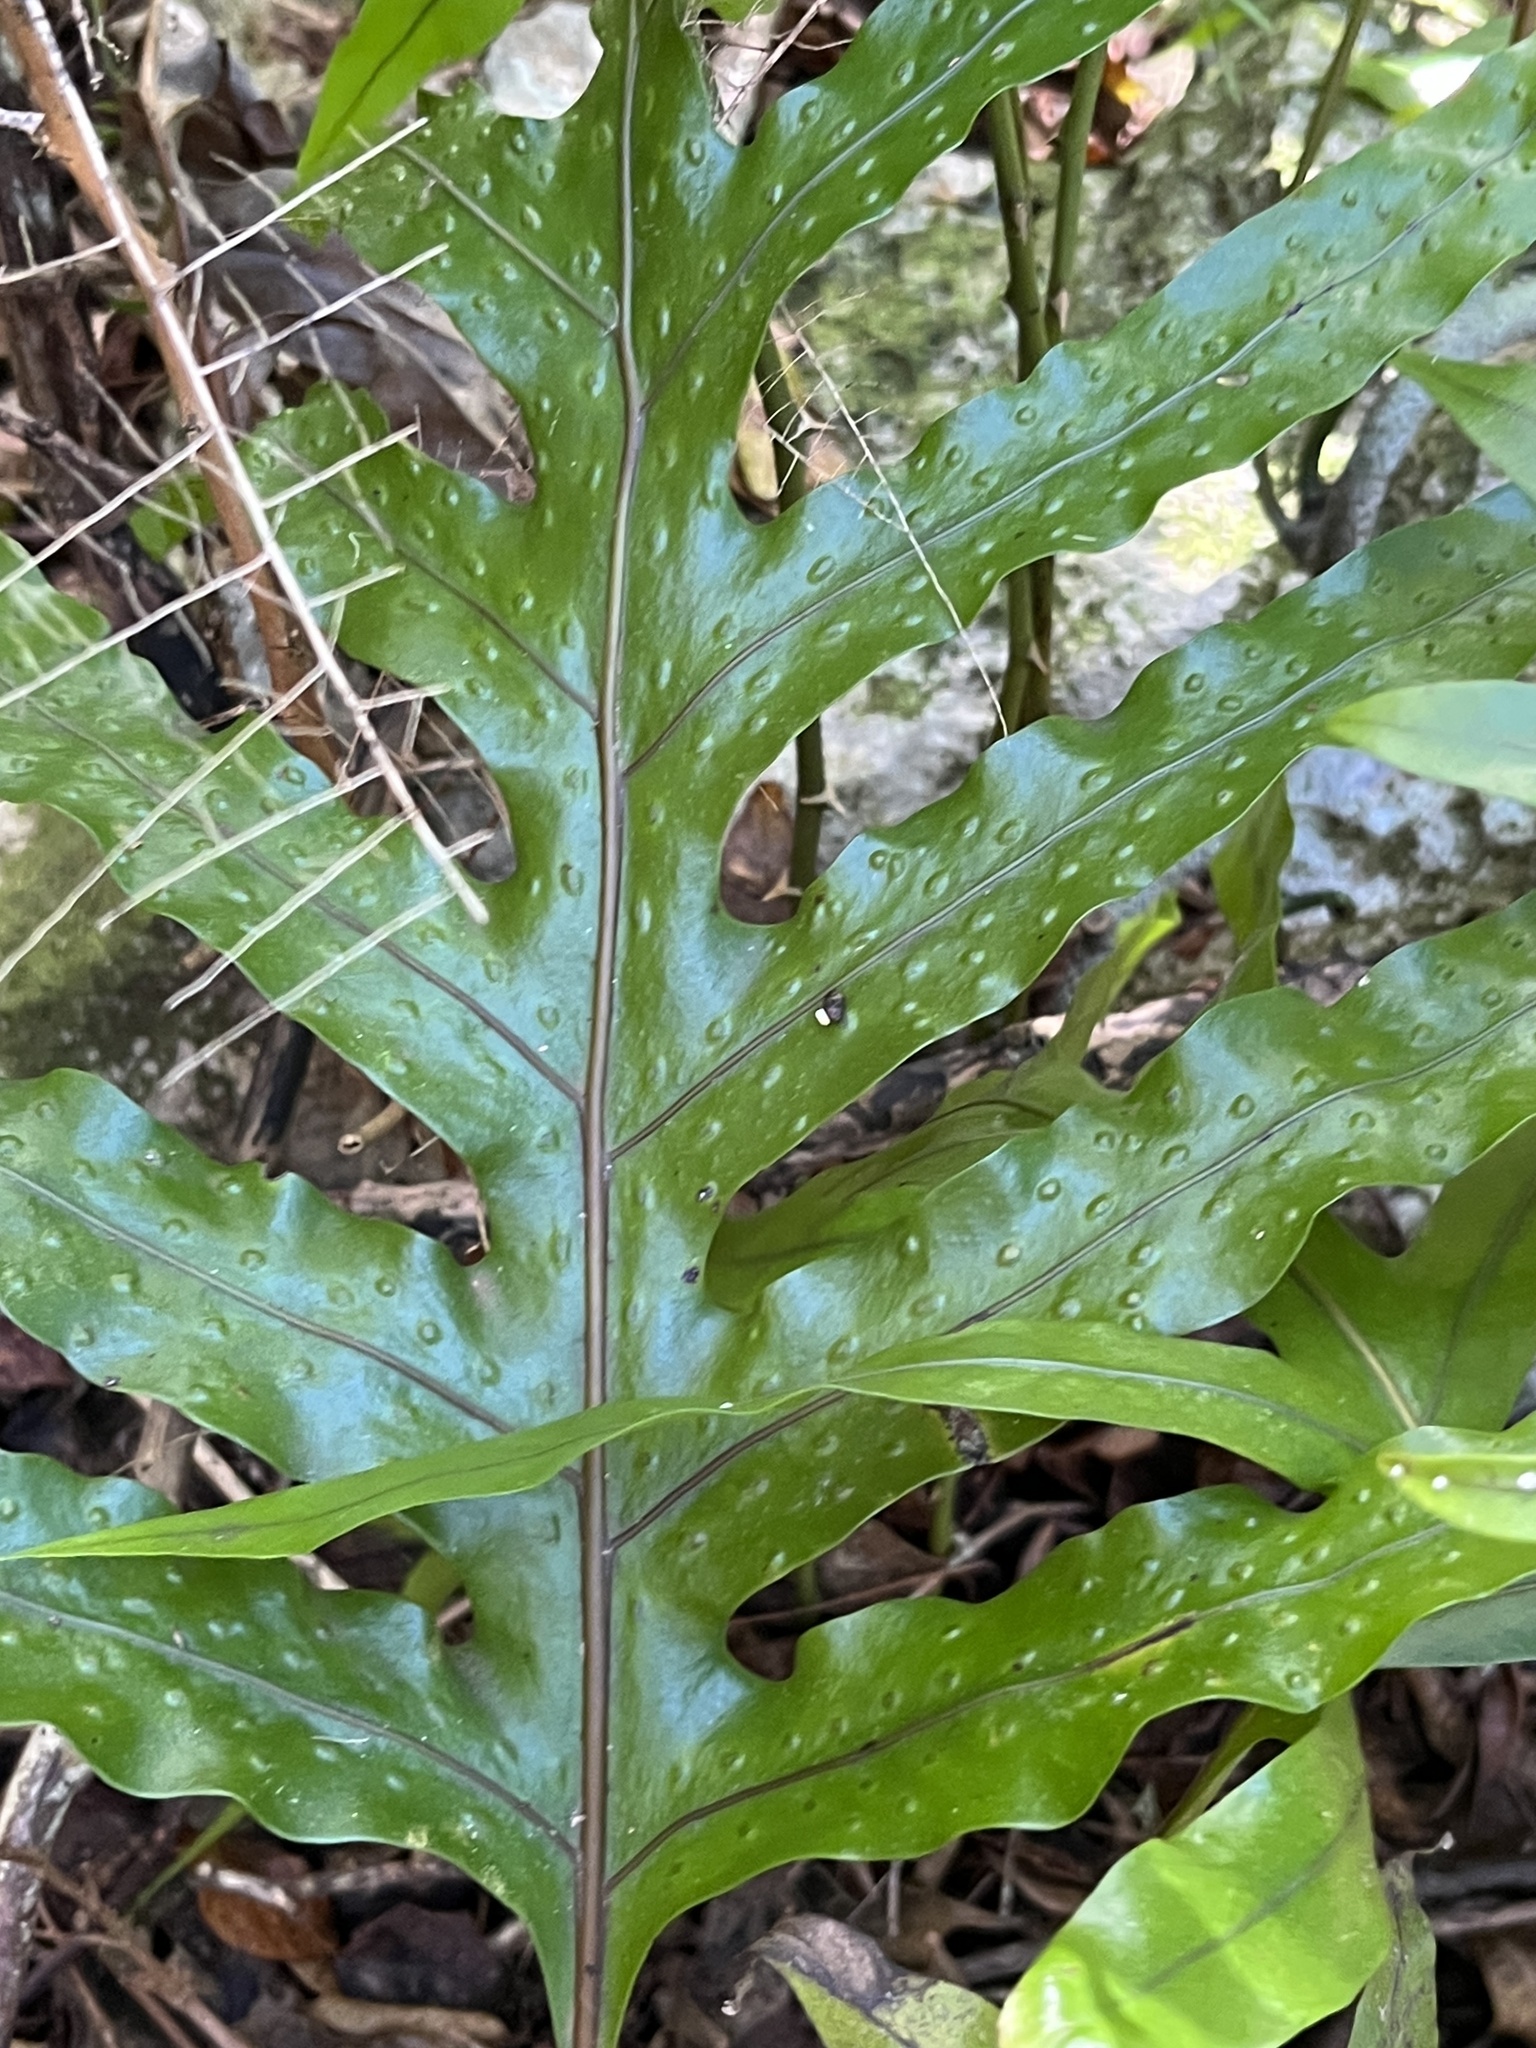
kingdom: Plantae
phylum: Tracheophyta
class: Polypodiopsida
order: Polypodiales
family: Polypodiaceae
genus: Microsorum
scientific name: Microsorum scolopendria
